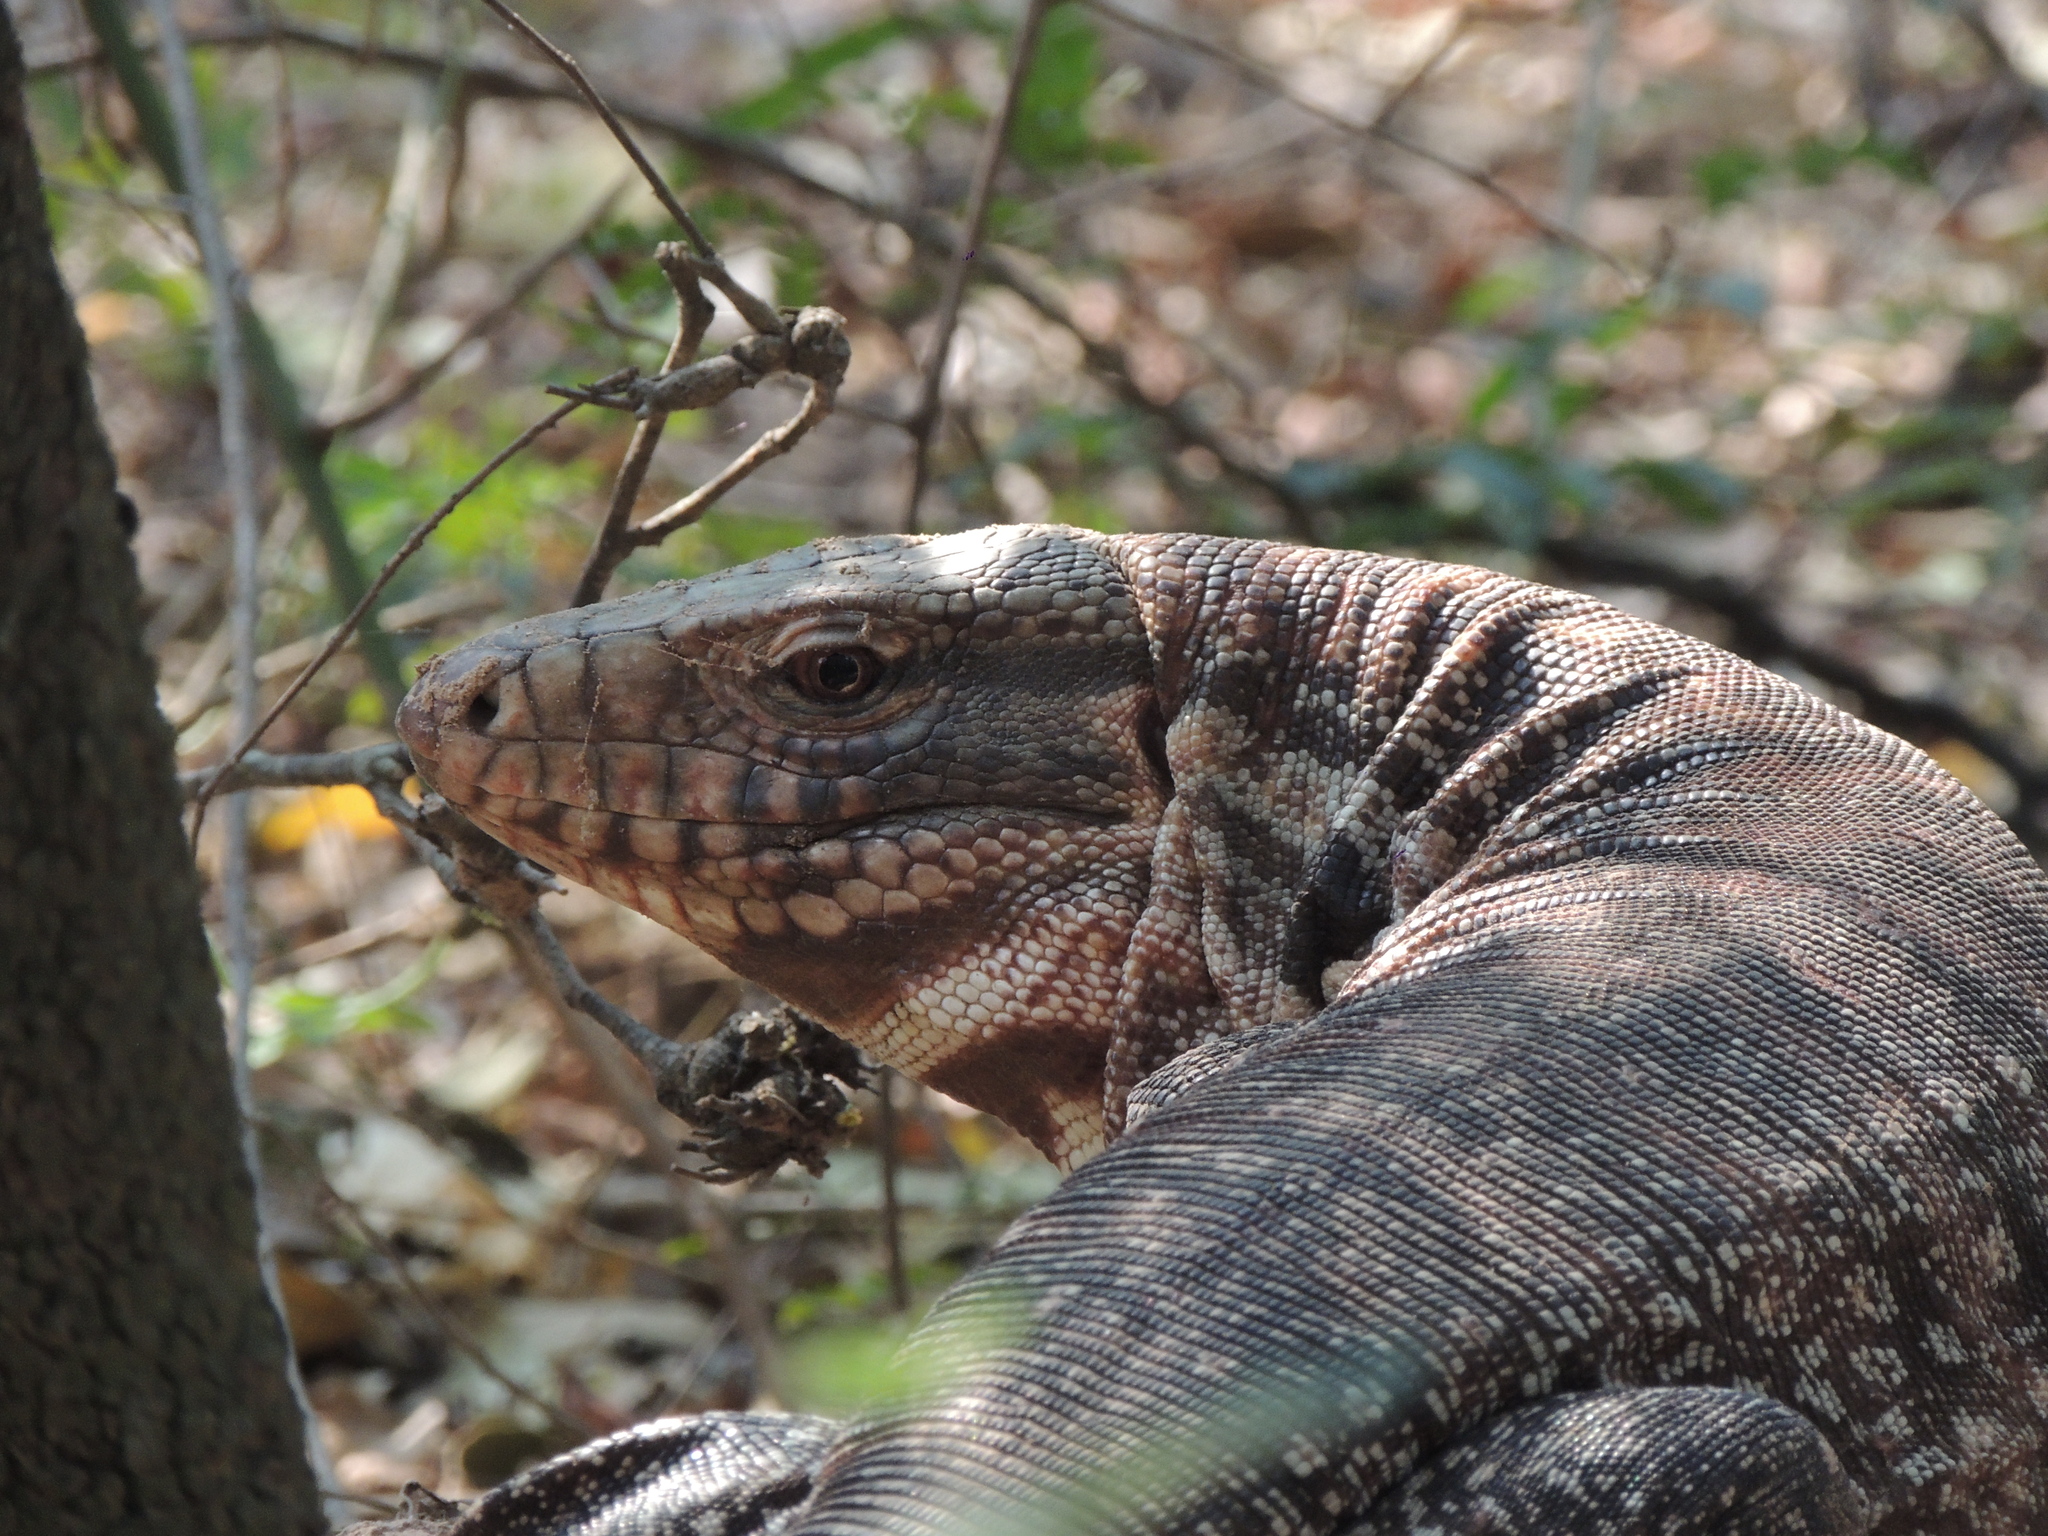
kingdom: Animalia
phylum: Chordata
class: Squamata
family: Teiidae
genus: Salvator
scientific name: Salvator rufescens
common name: Red tegu
